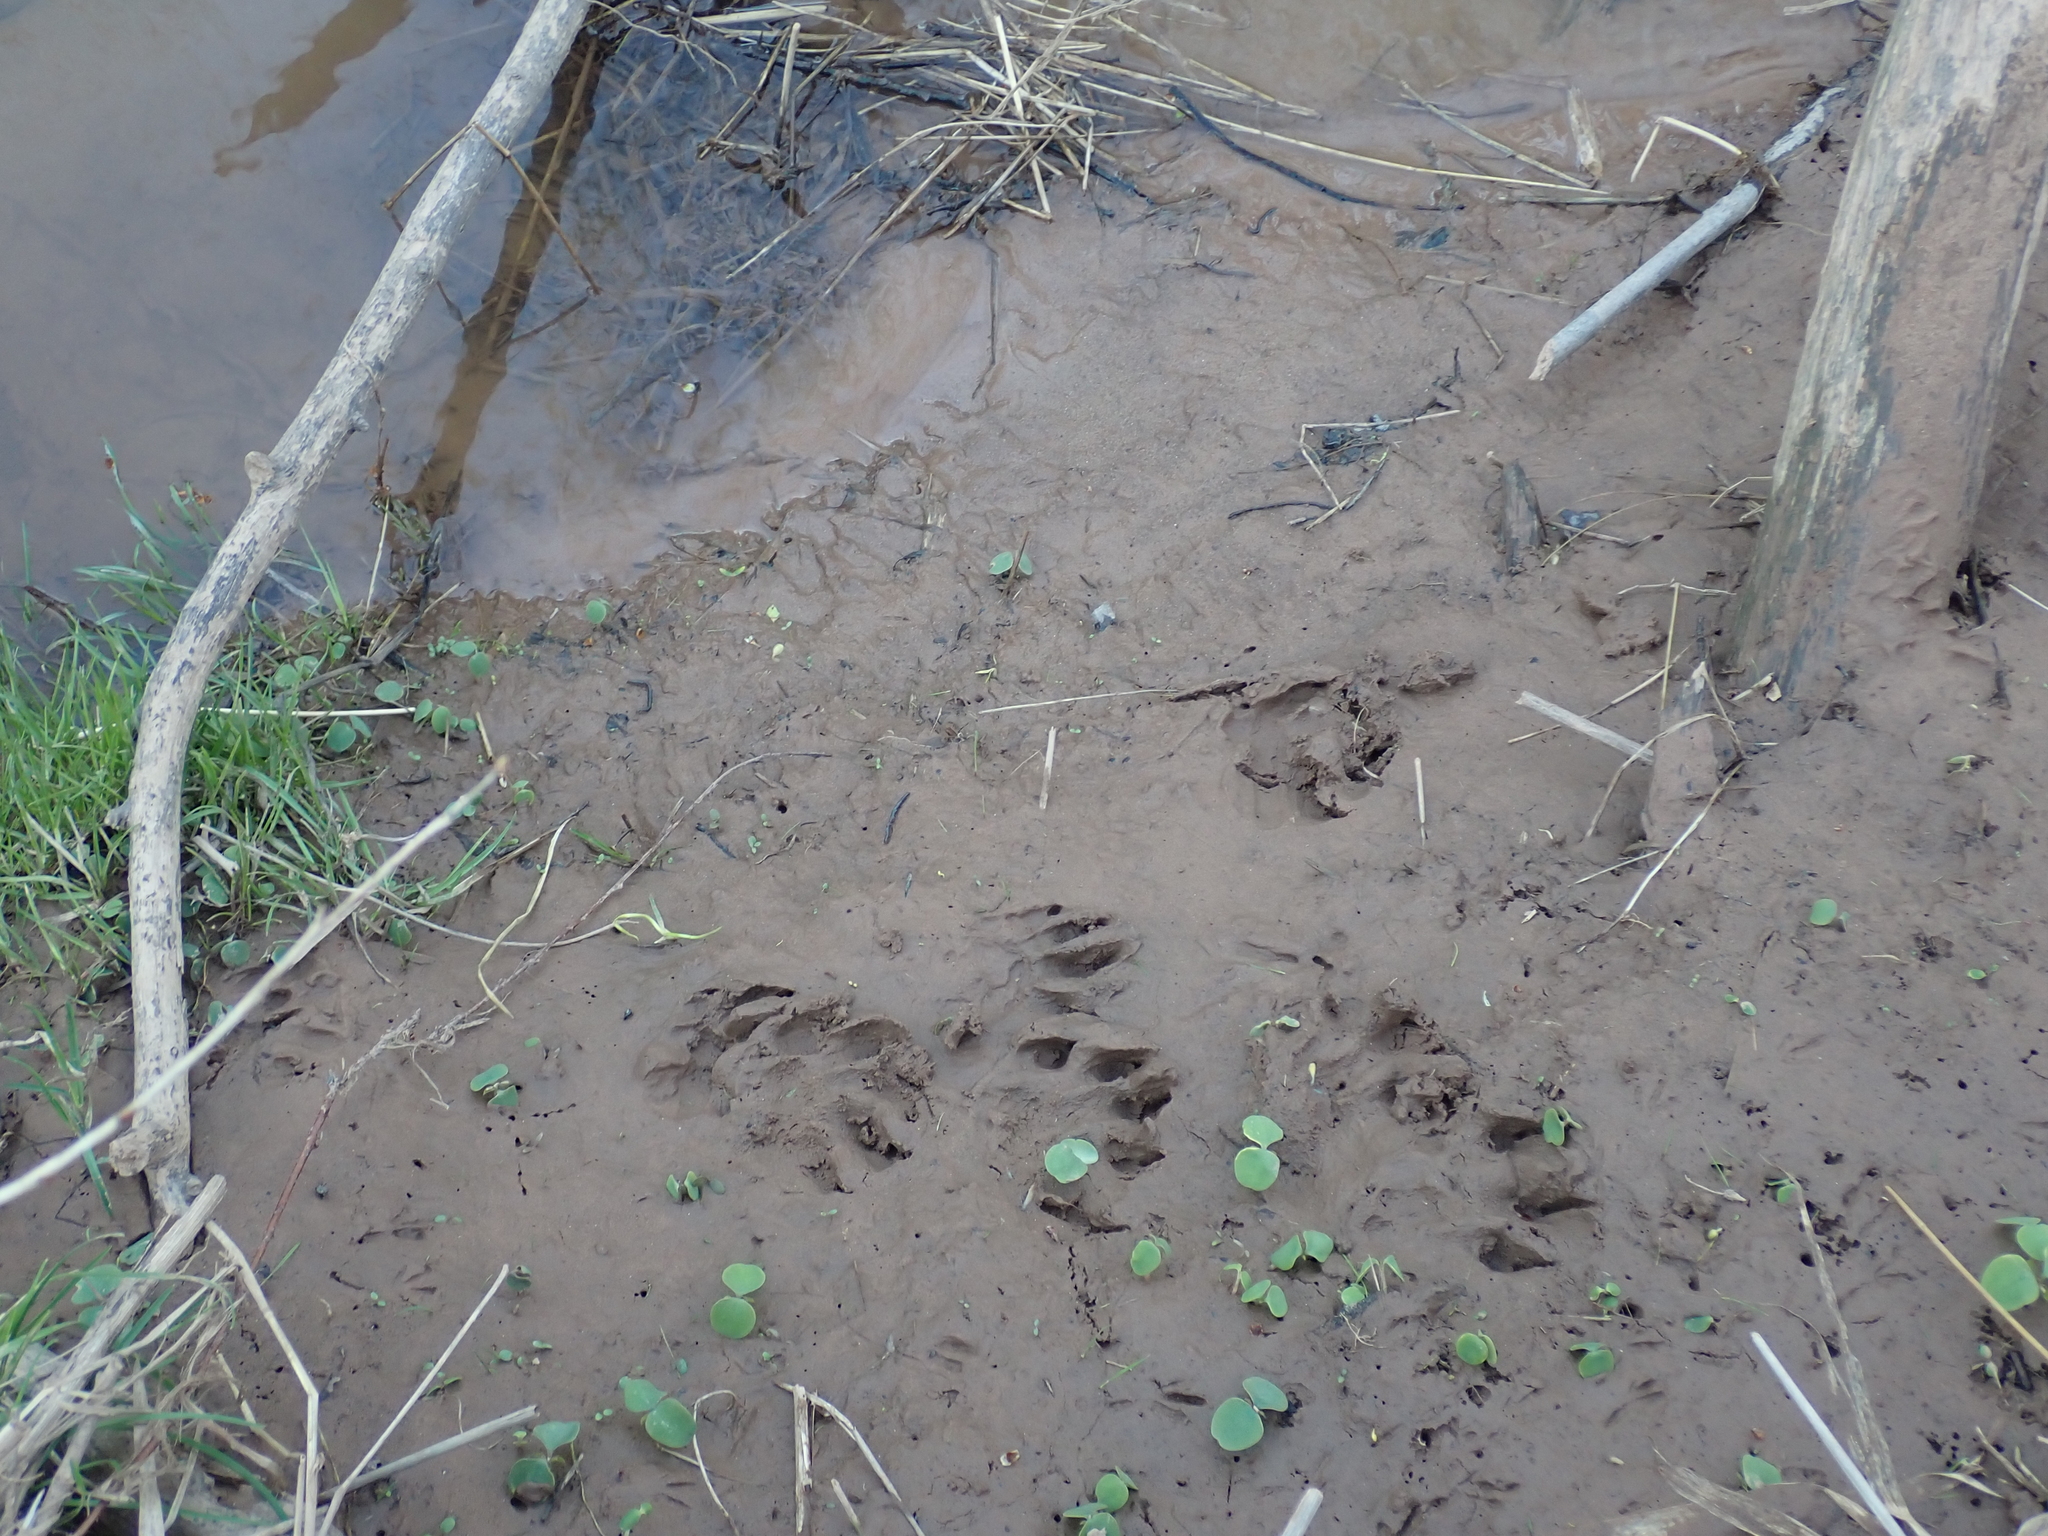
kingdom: Animalia
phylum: Chordata
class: Mammalia
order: Carnivora
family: Mustelidae
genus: Lontra
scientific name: Lontra canadensis
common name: North american river otter
